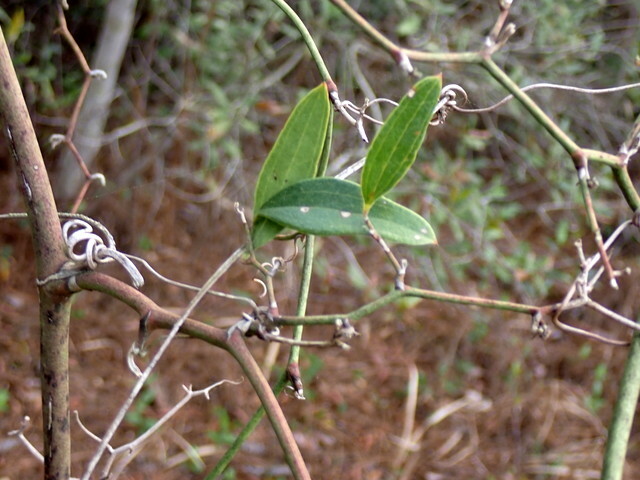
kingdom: Plantae
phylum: Tracheophyta
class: Liliopsida
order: Liliales
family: Smilacaceae
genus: Smilax
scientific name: Smilax auriculata
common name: Wild bamboo
